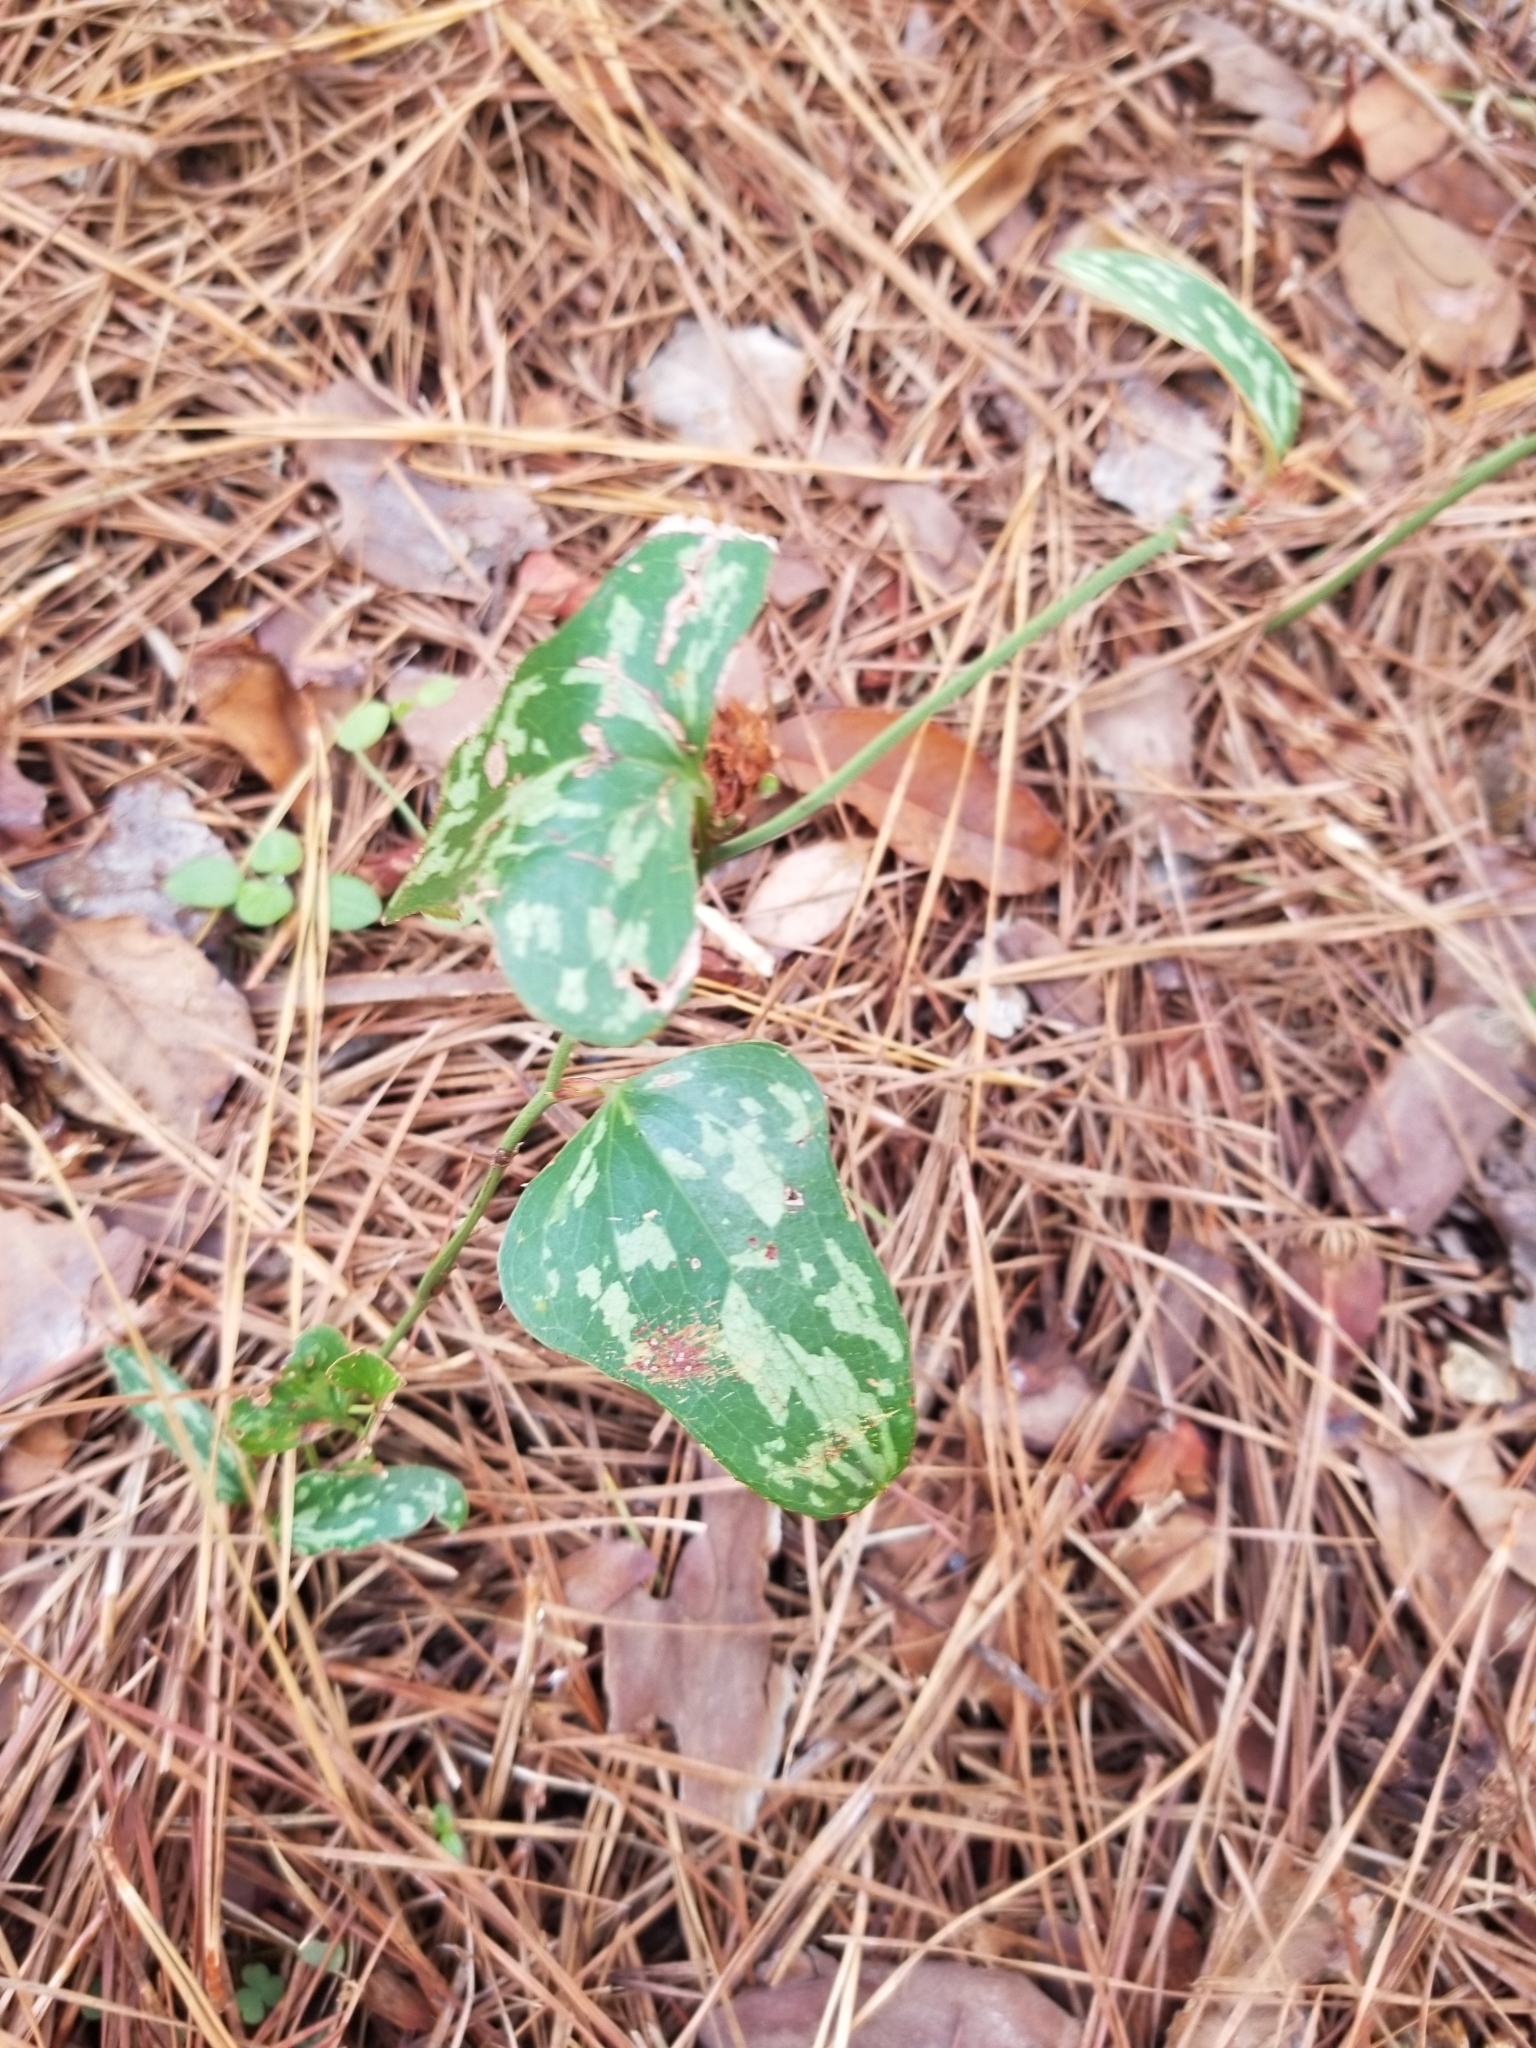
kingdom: Plantae
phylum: Tracheophyta
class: Liliopsida
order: Liliales
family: Smilacaceae
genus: Smilax
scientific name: Smilax bona-nox
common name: Catbrier
